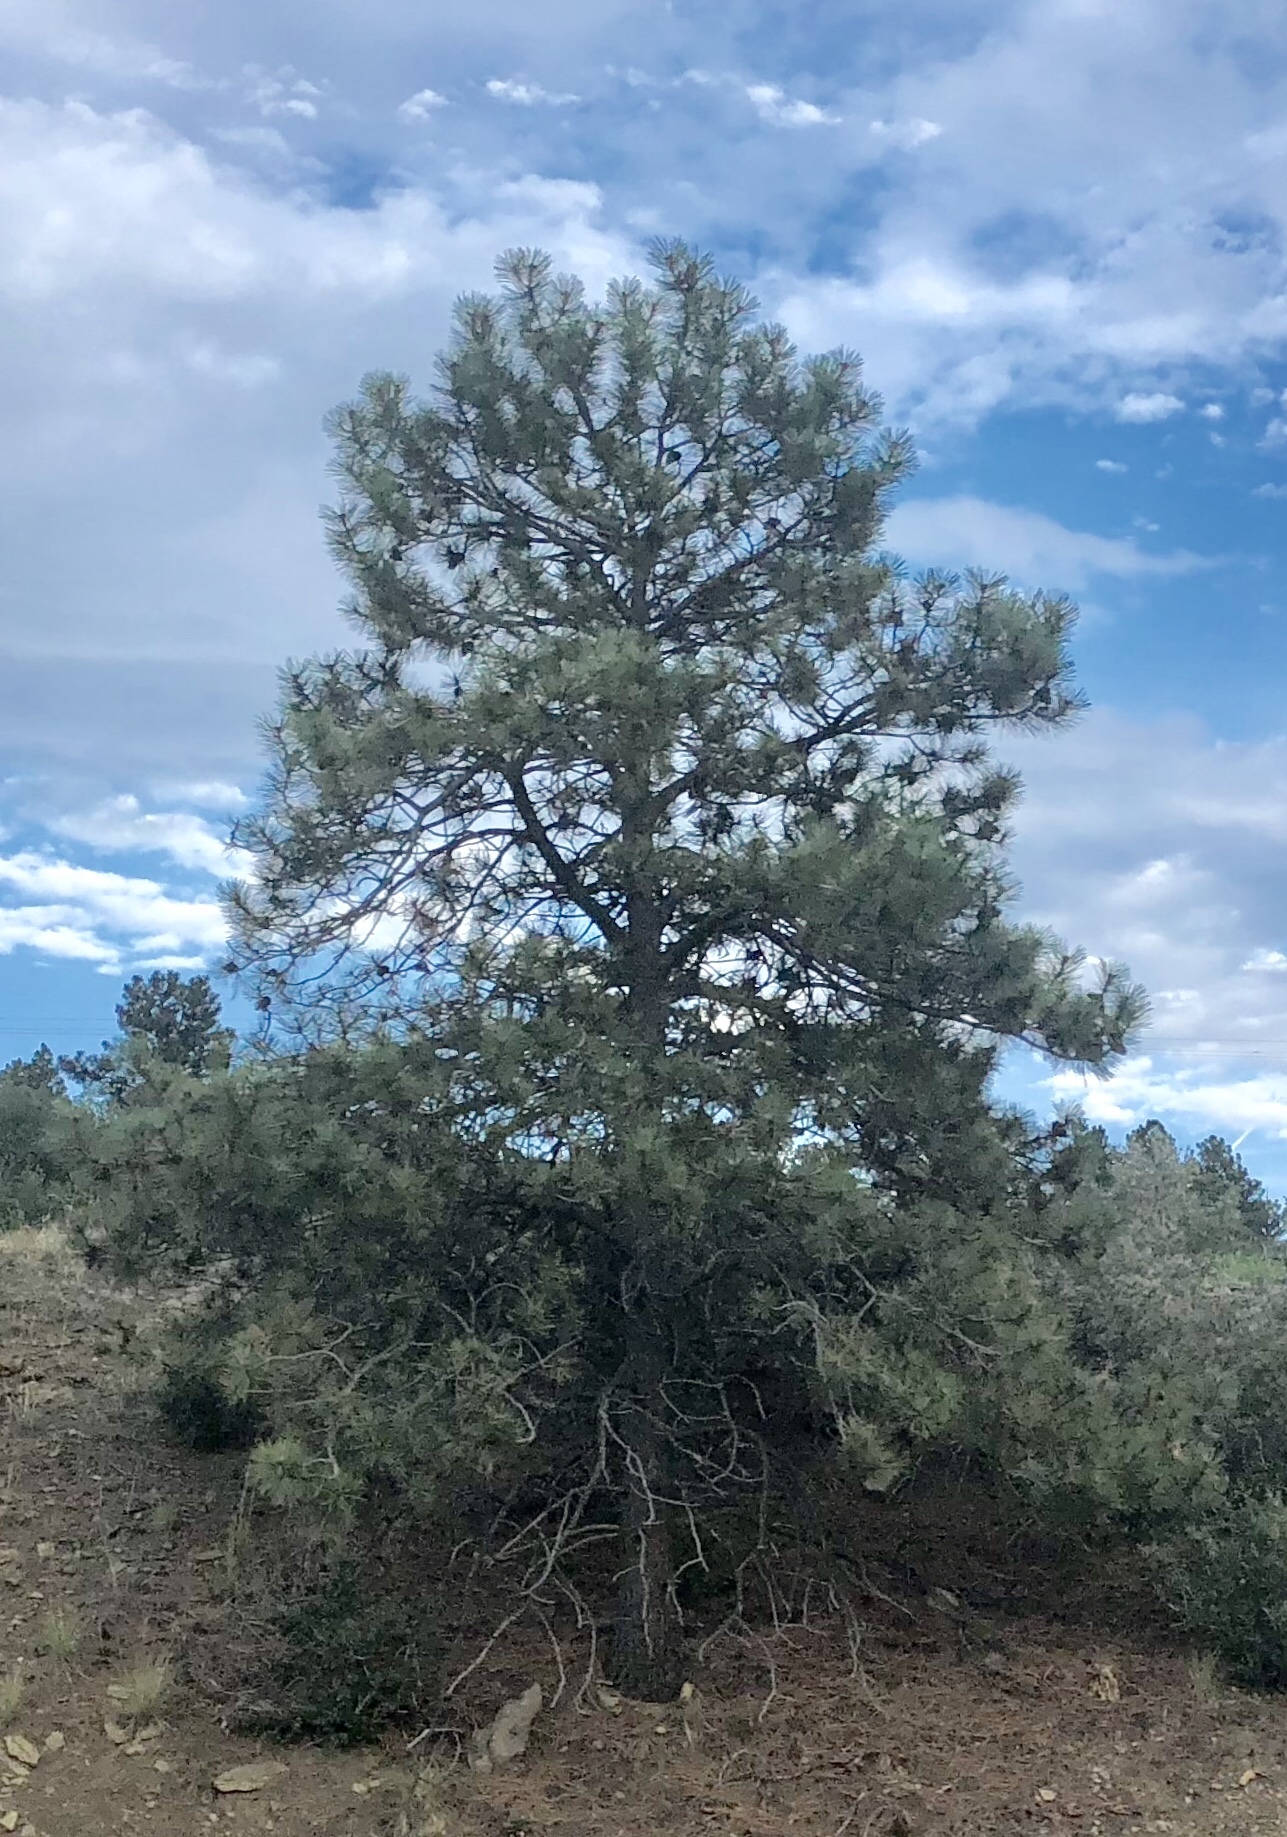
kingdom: Plantae
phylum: Tracheophyta
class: Pinopsida
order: Pinales
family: Pinaceae
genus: Pinus
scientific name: Pinus ponderosa
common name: Western yellow-pine
